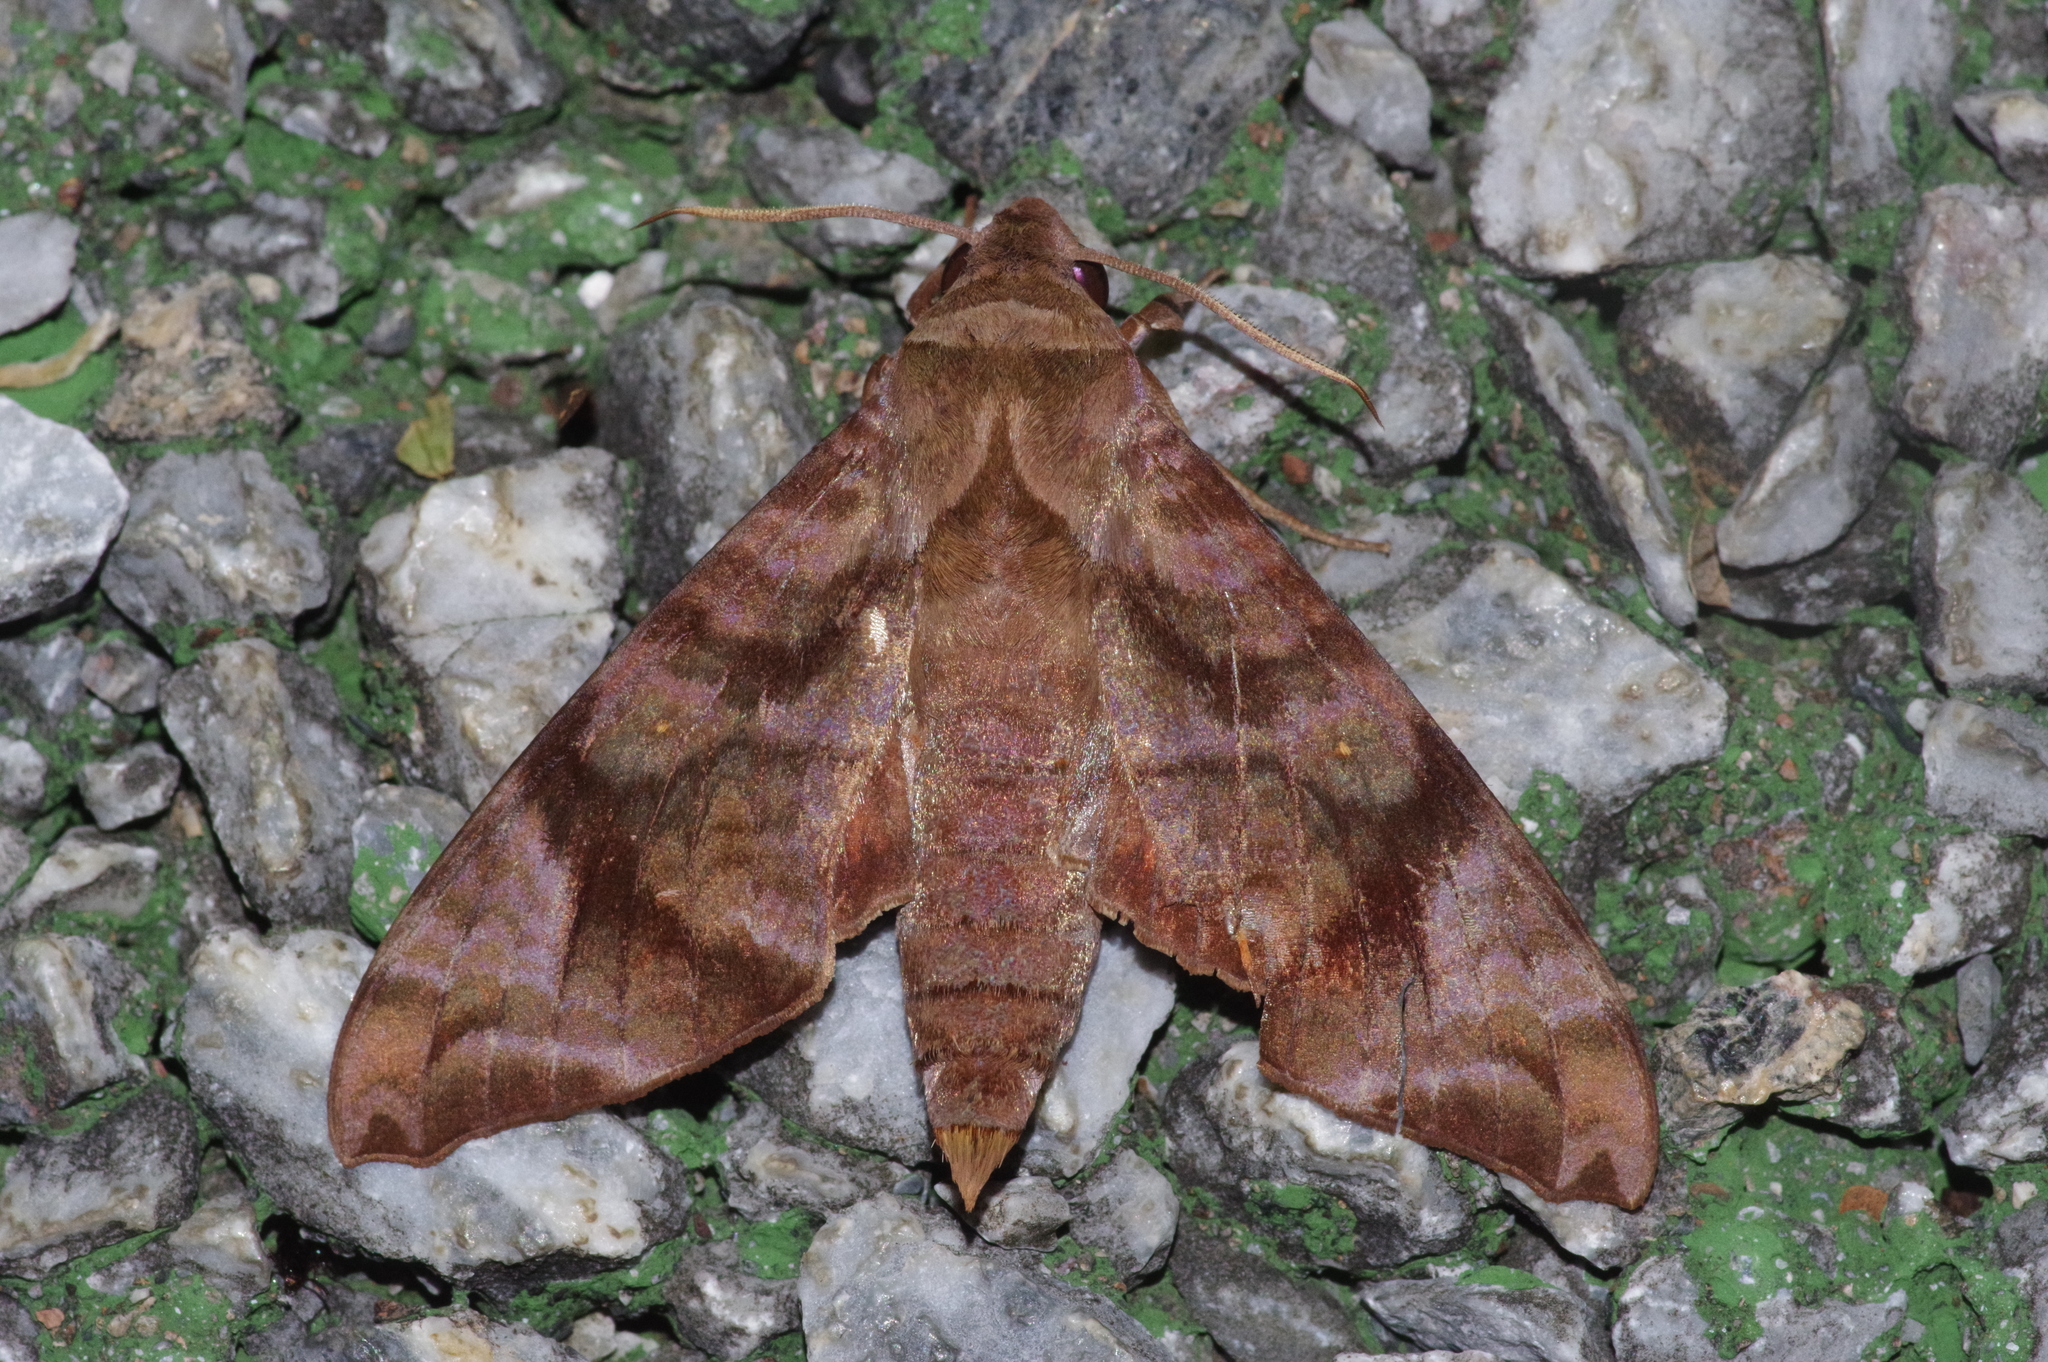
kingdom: Animalia
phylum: Arthropoda
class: Insecta
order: Lepidoptera
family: Sphingidae
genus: Acosmeryx
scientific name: Acosmeryx castanea
